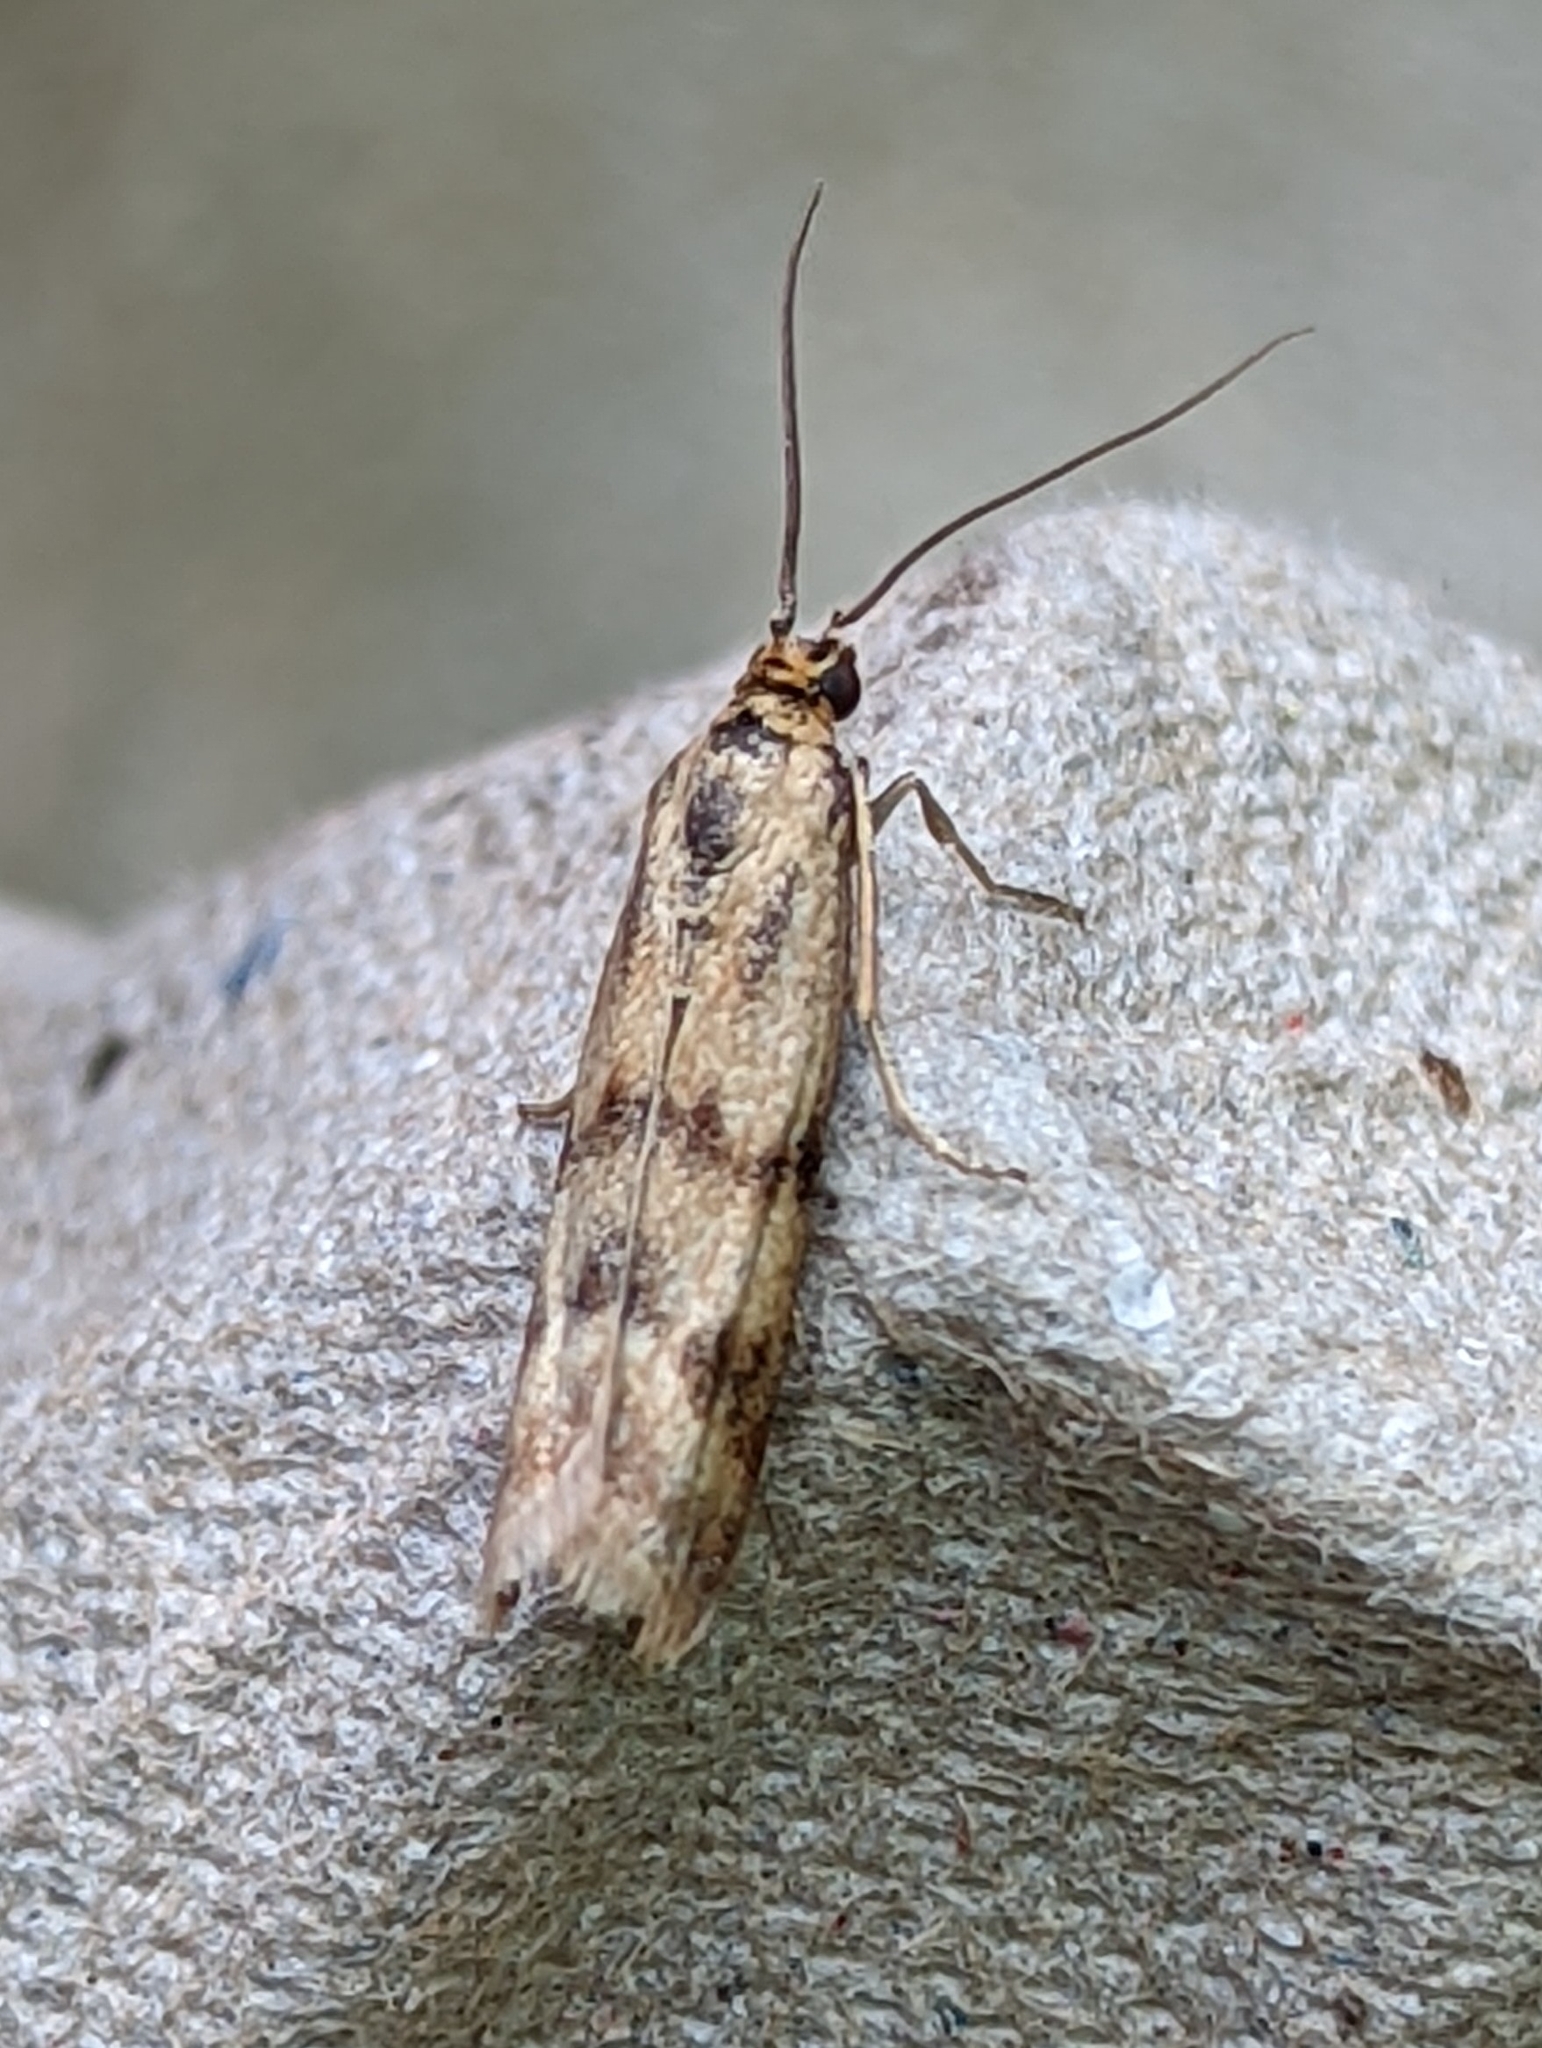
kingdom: Animalia
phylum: Arthropoda
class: Insecta
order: Lepidoptera
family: Pyralidae
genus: Homoeosoma
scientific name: Homoeosoma sinuella
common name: Twin-barred knot-horn
